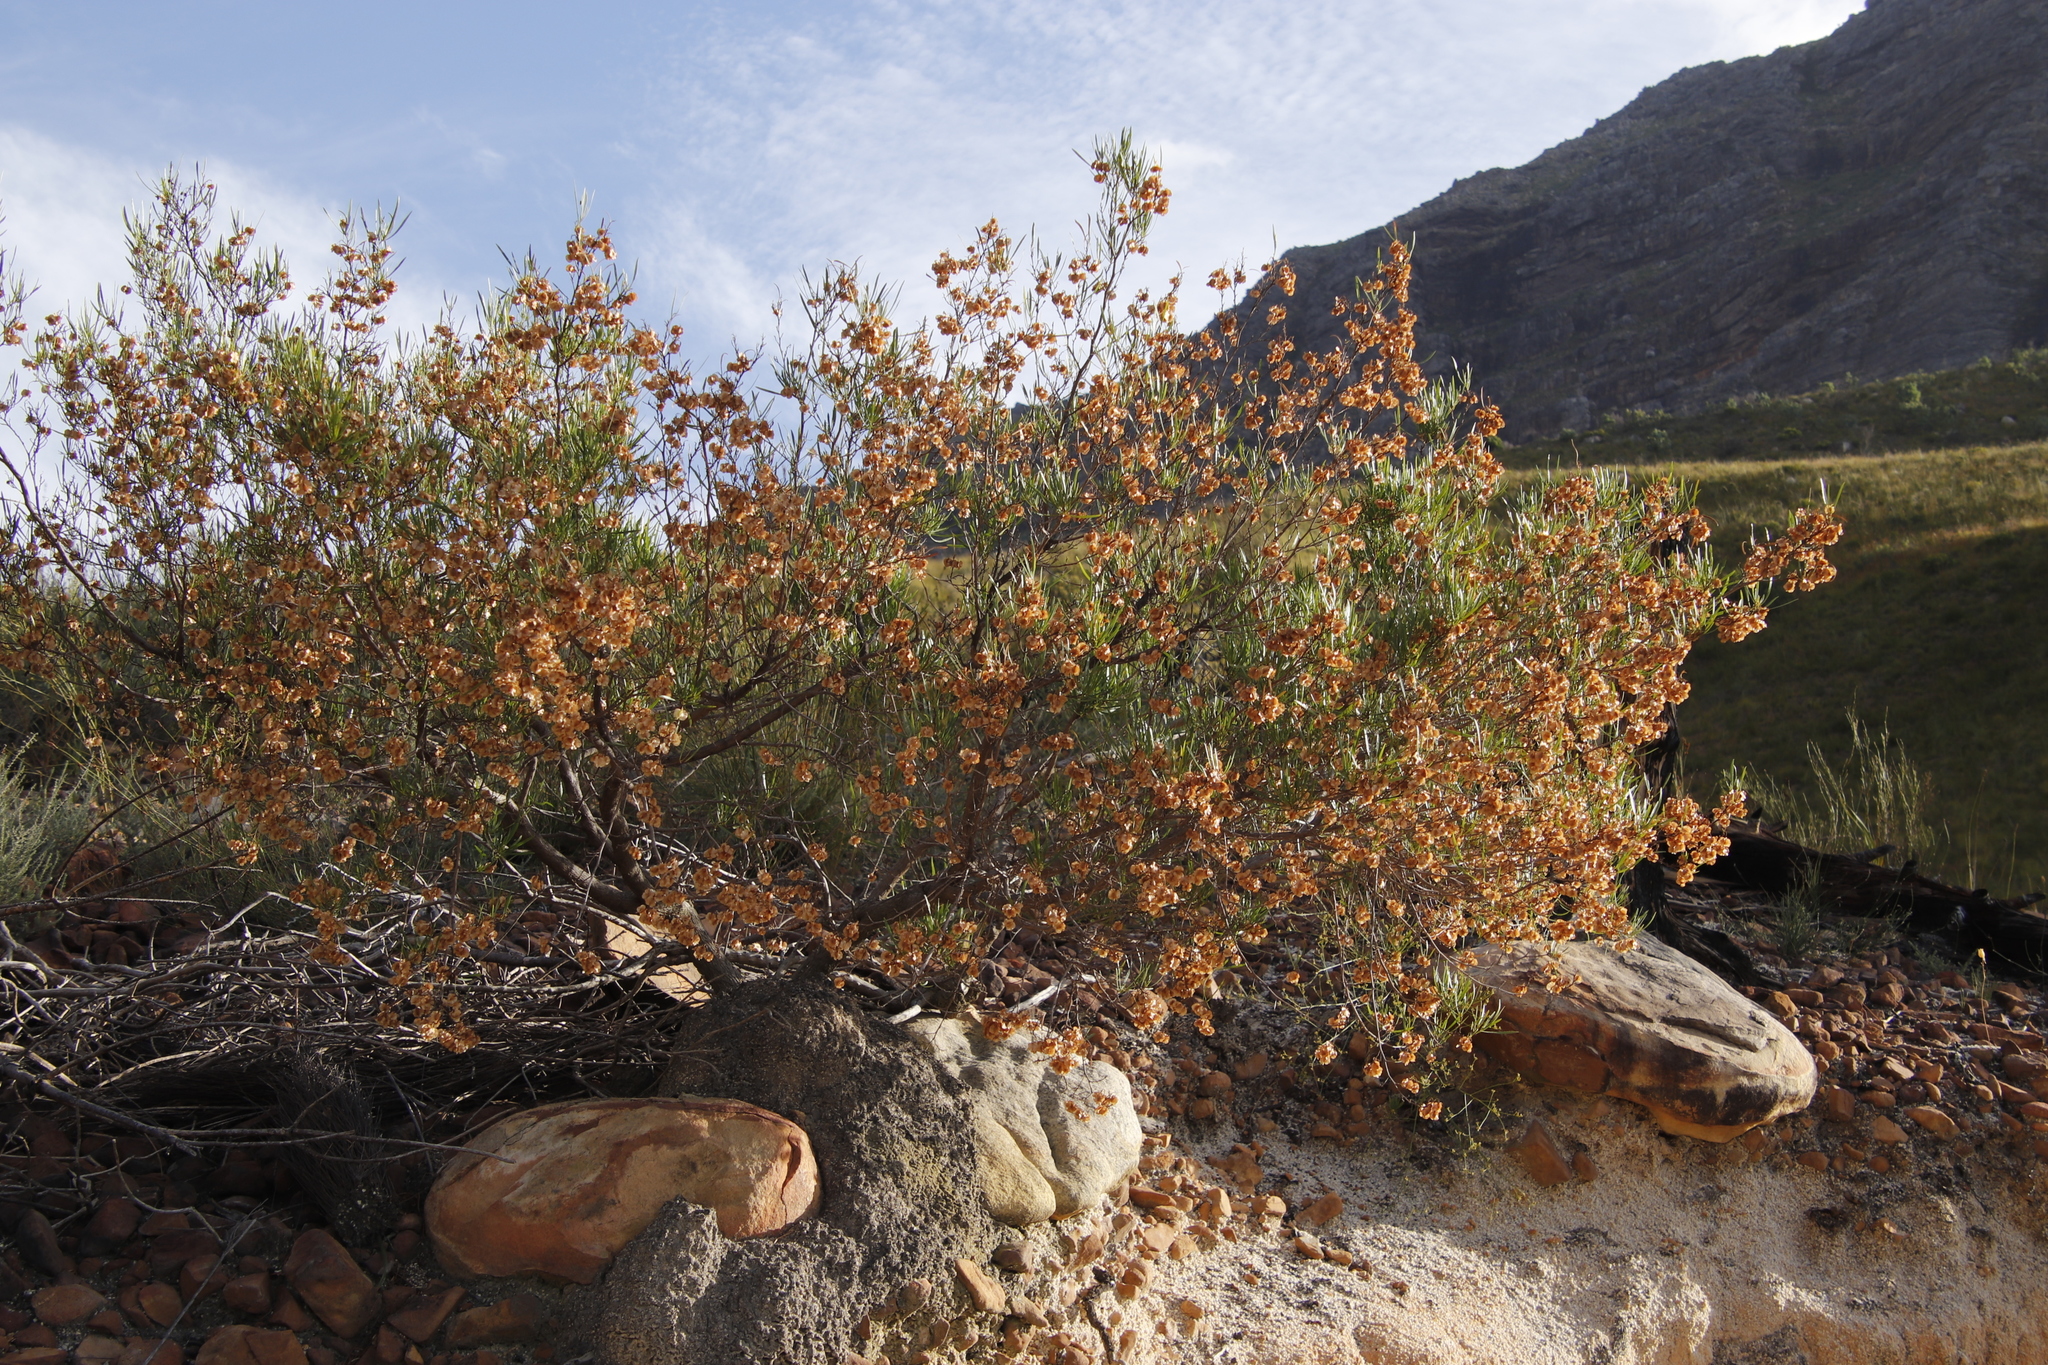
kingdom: Plantae
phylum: Tracheophyta
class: Magnoliopsida
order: Sapindales
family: Sapindaceae
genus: Dodonaea
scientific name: Dodonaea viscosa
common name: Hopbush
